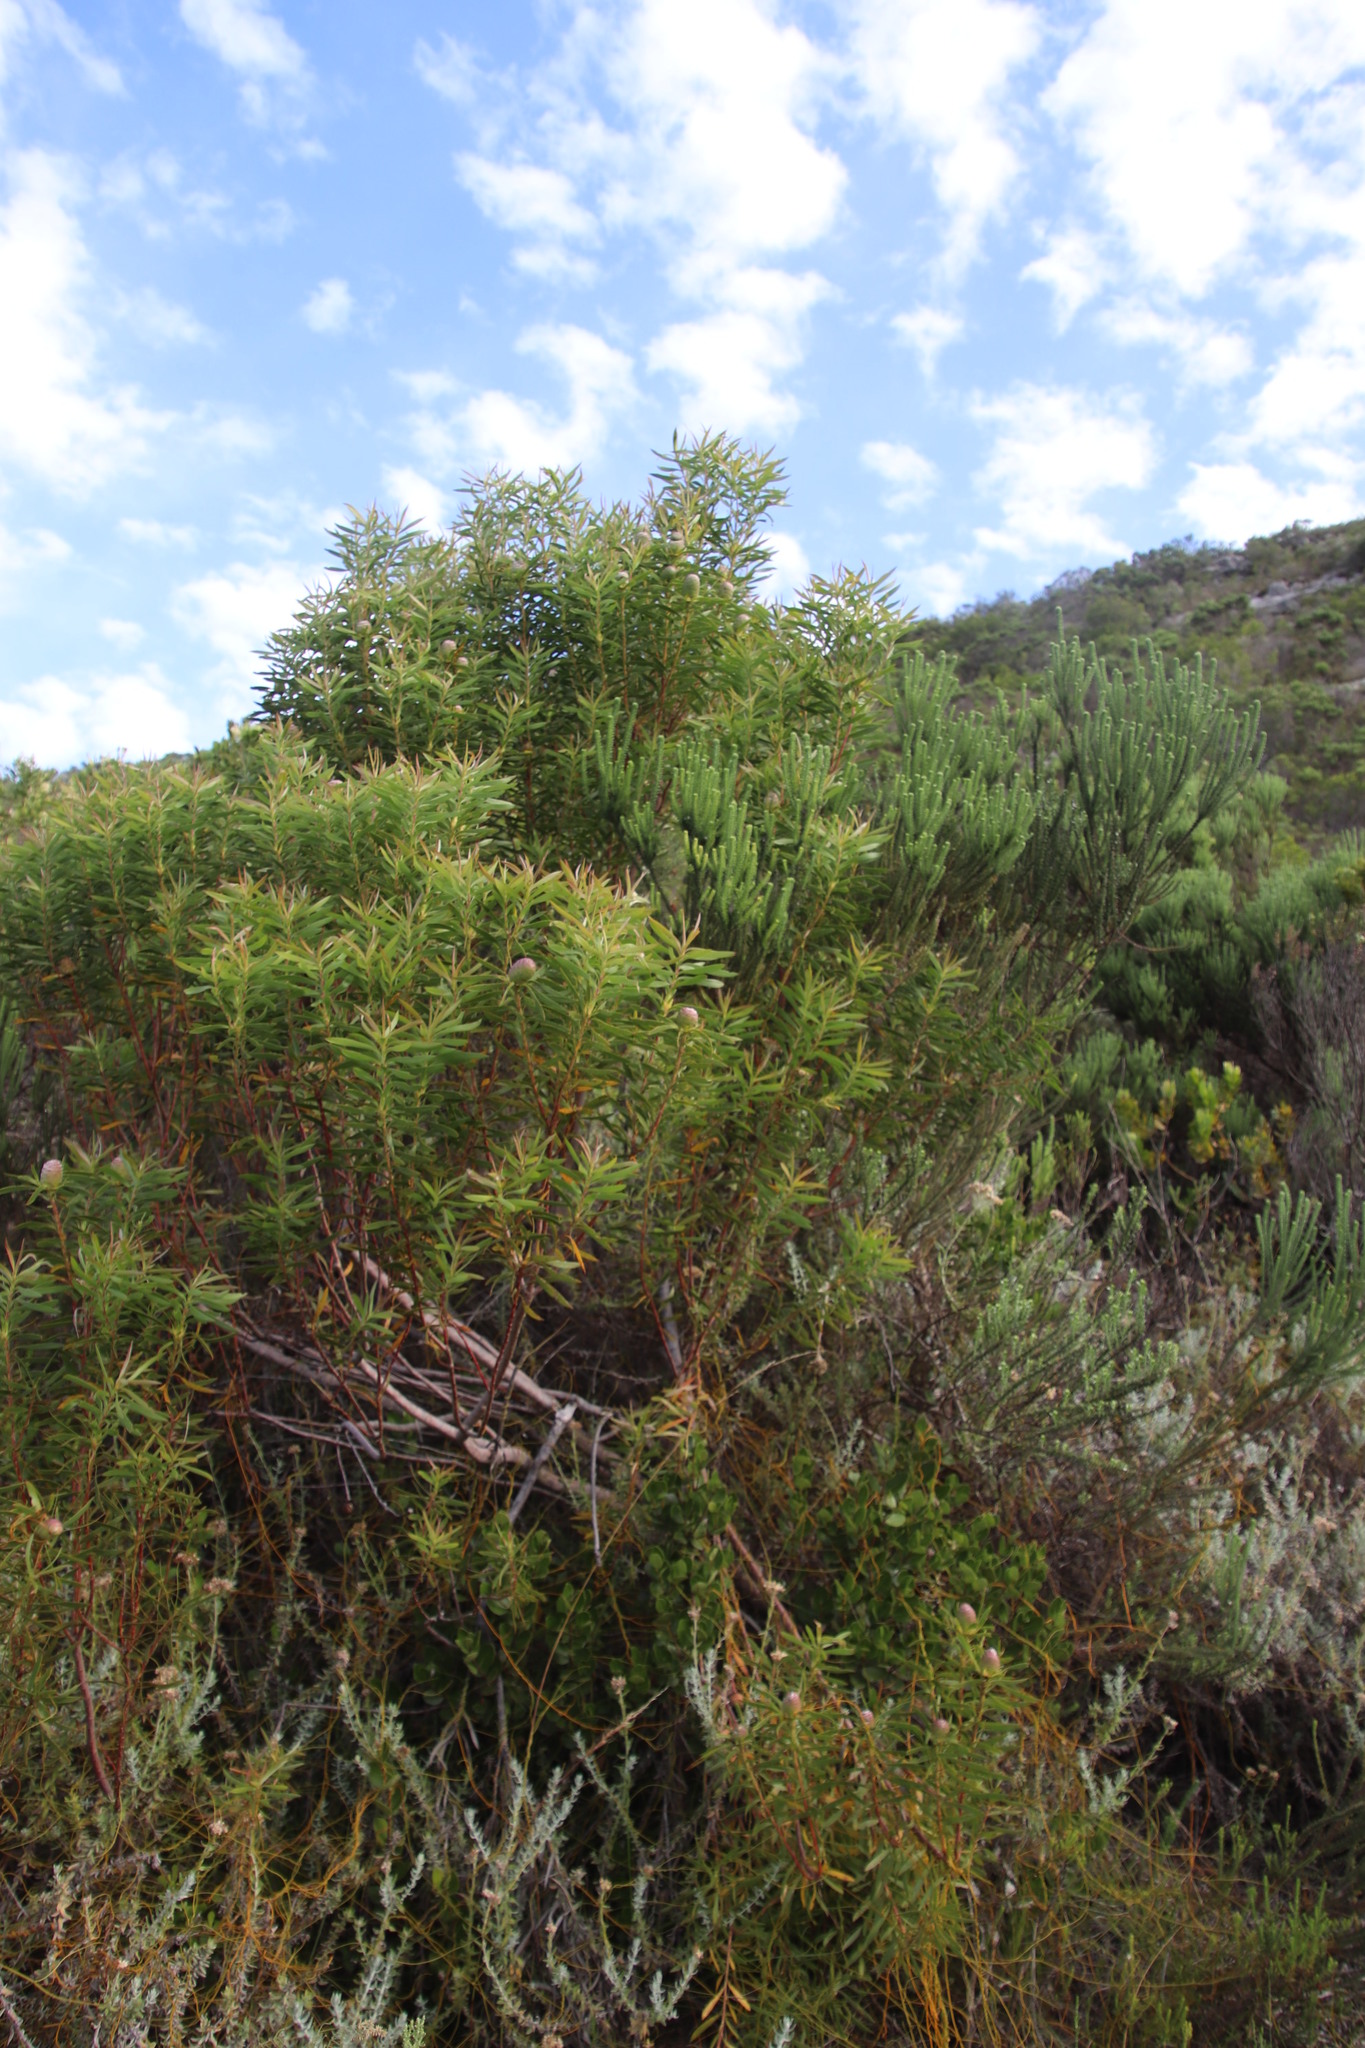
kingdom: Plantae
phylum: Tracheophyta
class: Magnoliopsida
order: Proteales
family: Proteaceae
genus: Leucadendron
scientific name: Leucadendron coniferum
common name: Dune conebush
